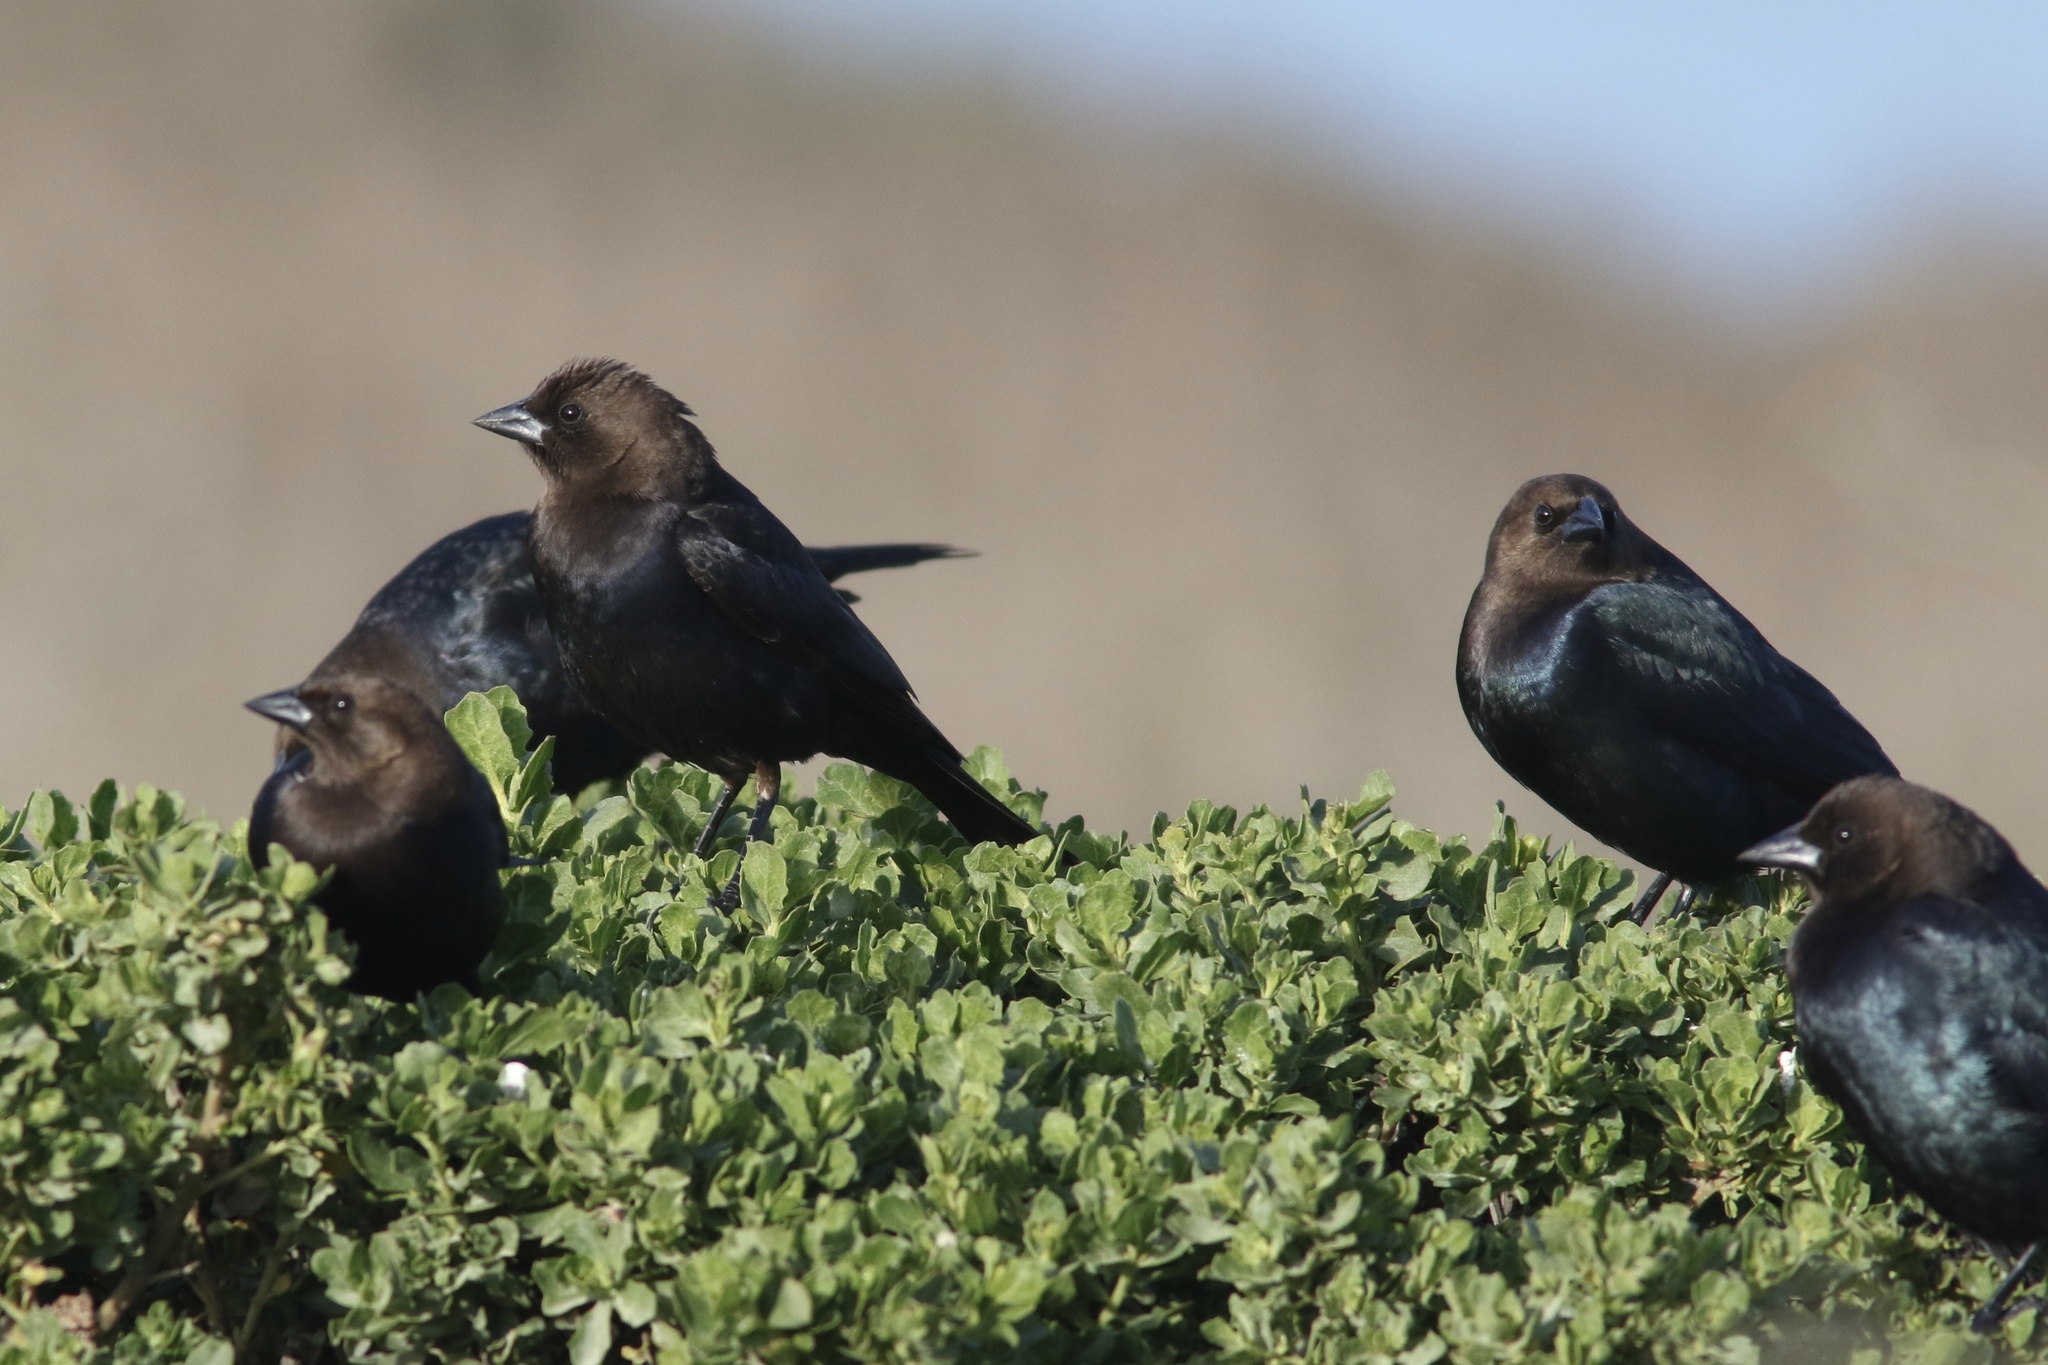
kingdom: Animalia
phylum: Chordata
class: Aves
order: Passeriformes
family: Icteridae
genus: Molothrus
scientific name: Molothrus ater
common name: Brown-headed cowbird
